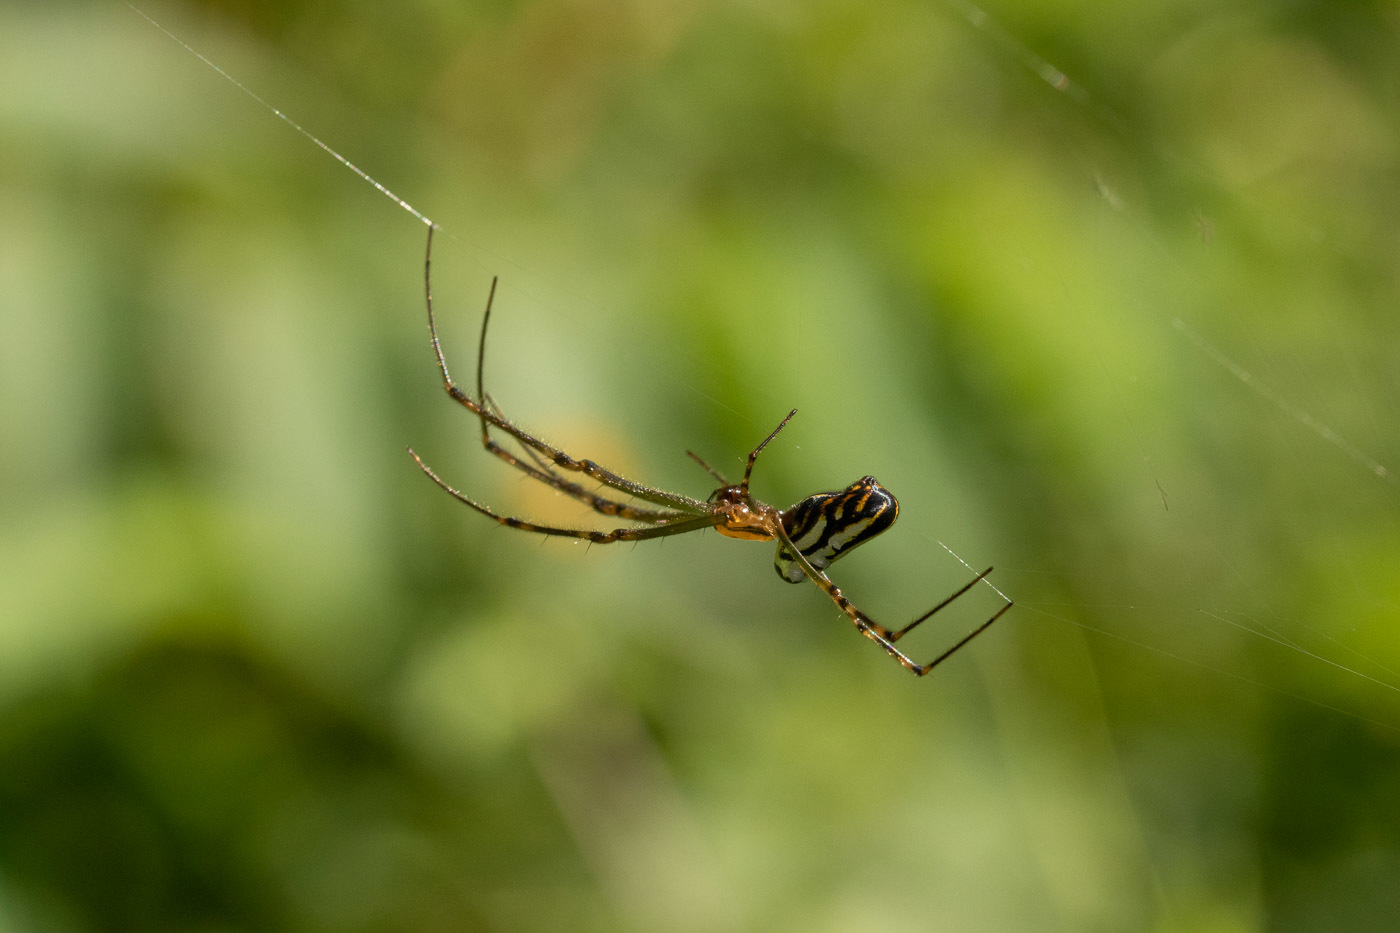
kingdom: Animalia
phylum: Arthropoda
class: Arachnida
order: Araneae
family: Tetragnathidae
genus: Leucauge
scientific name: Leucauge dromedaria
